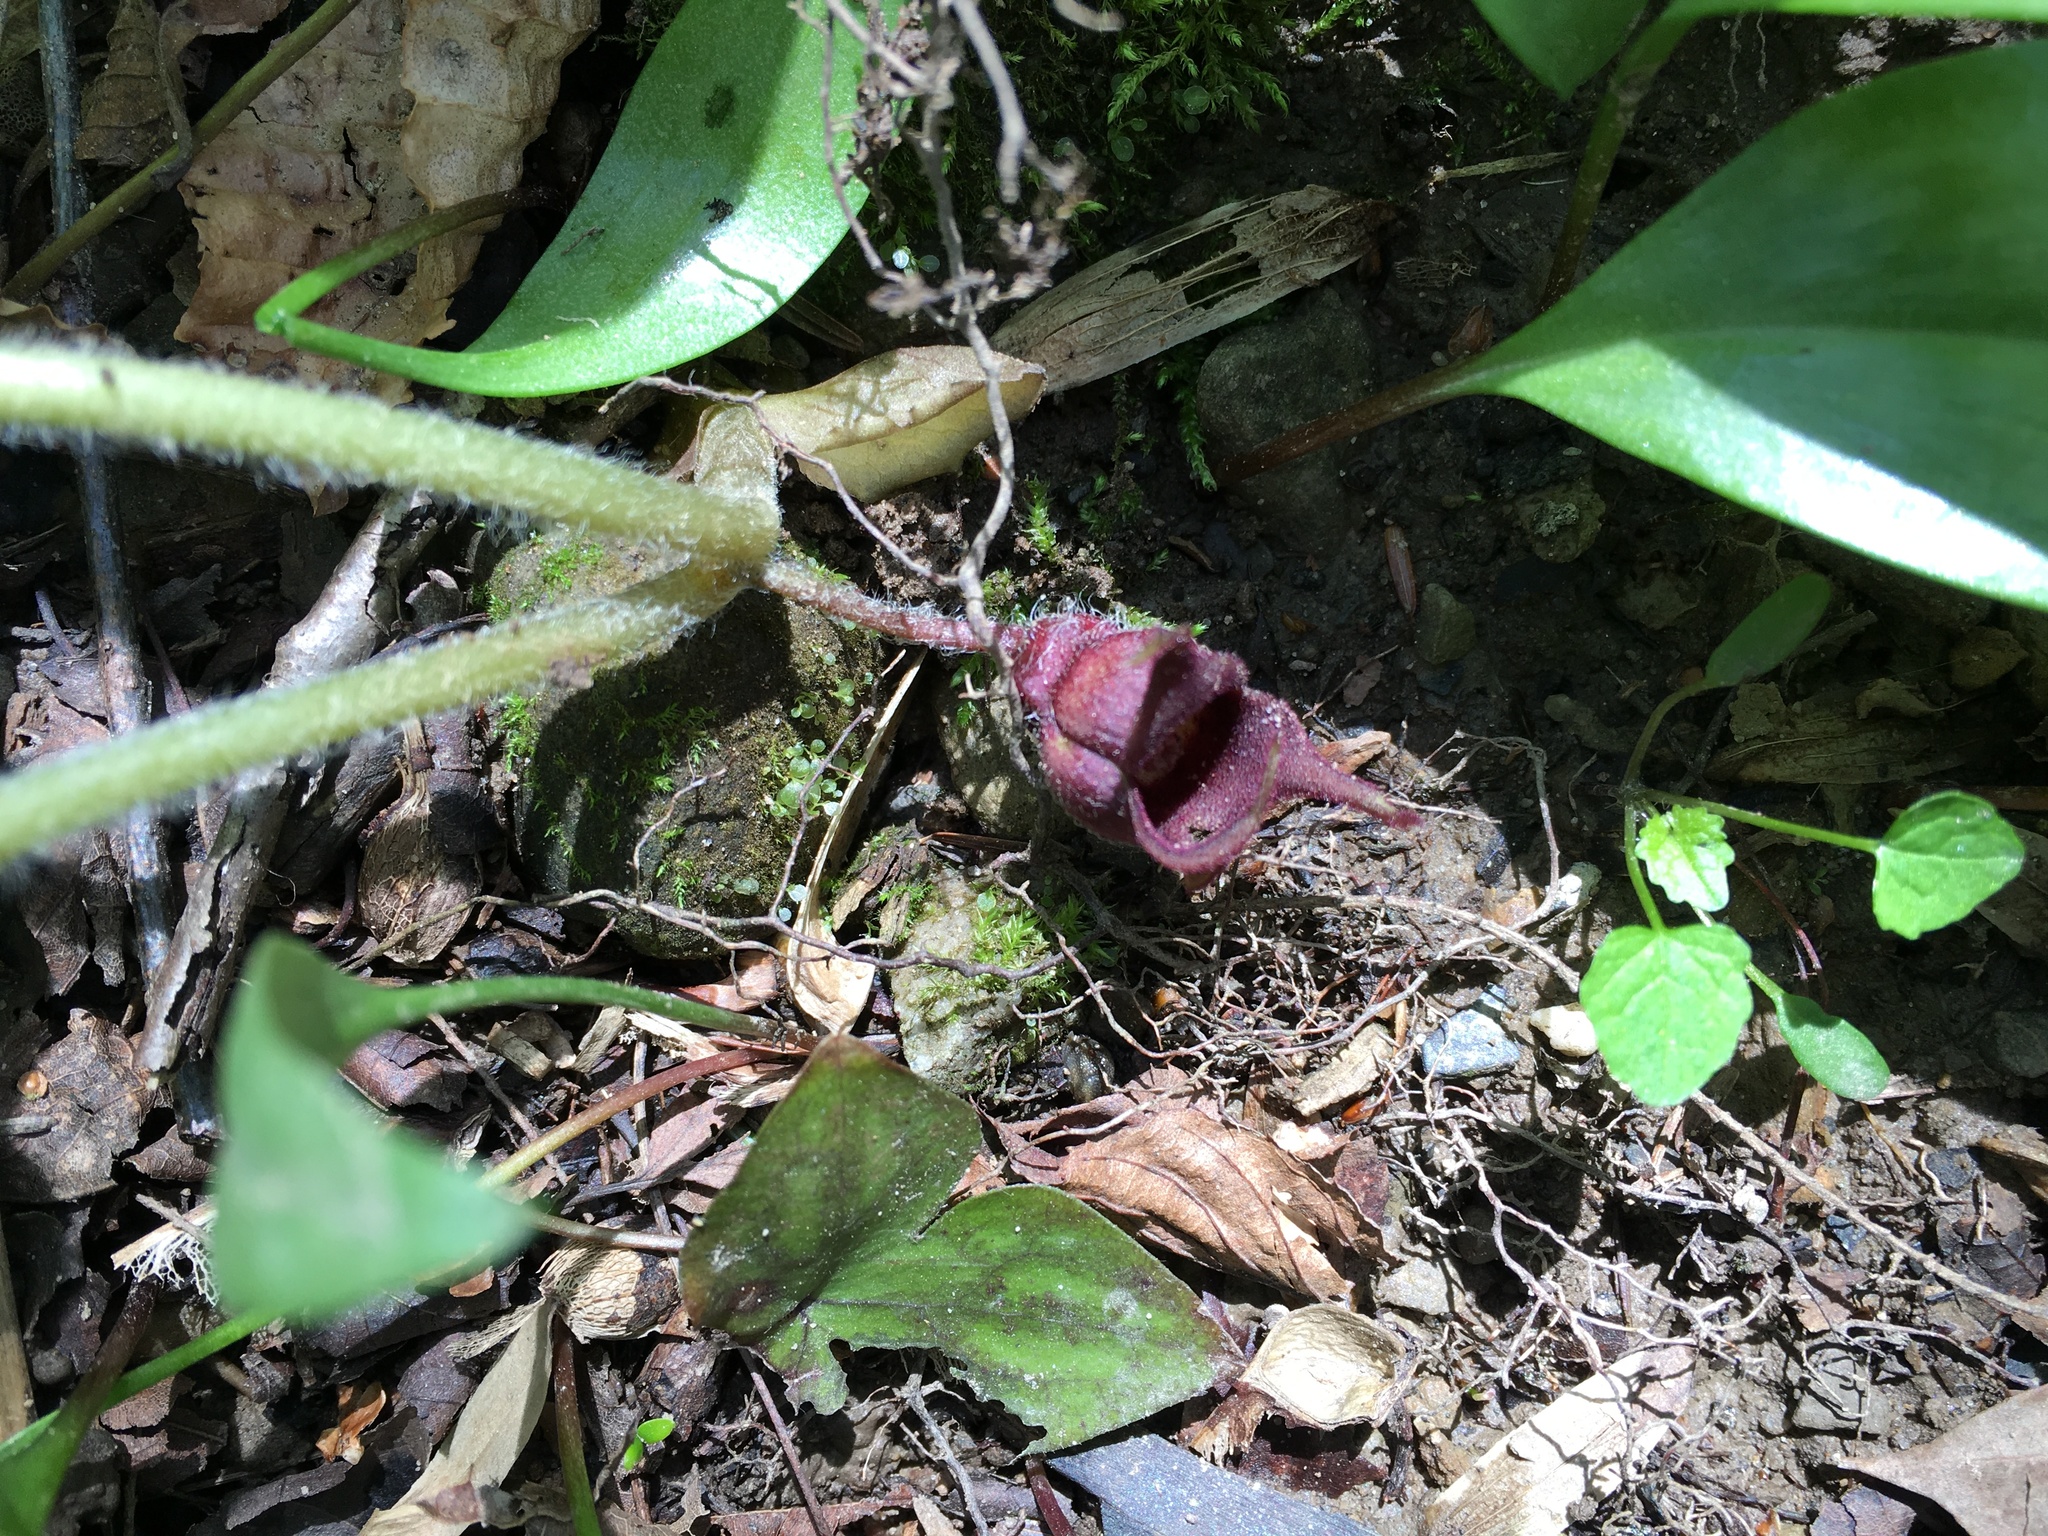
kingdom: Plantae
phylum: Tracheophyta
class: Magnoliopsida
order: Piperales
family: Aristolochiaceae
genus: Asarum
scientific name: Asarum canadense
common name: Wild ginger
